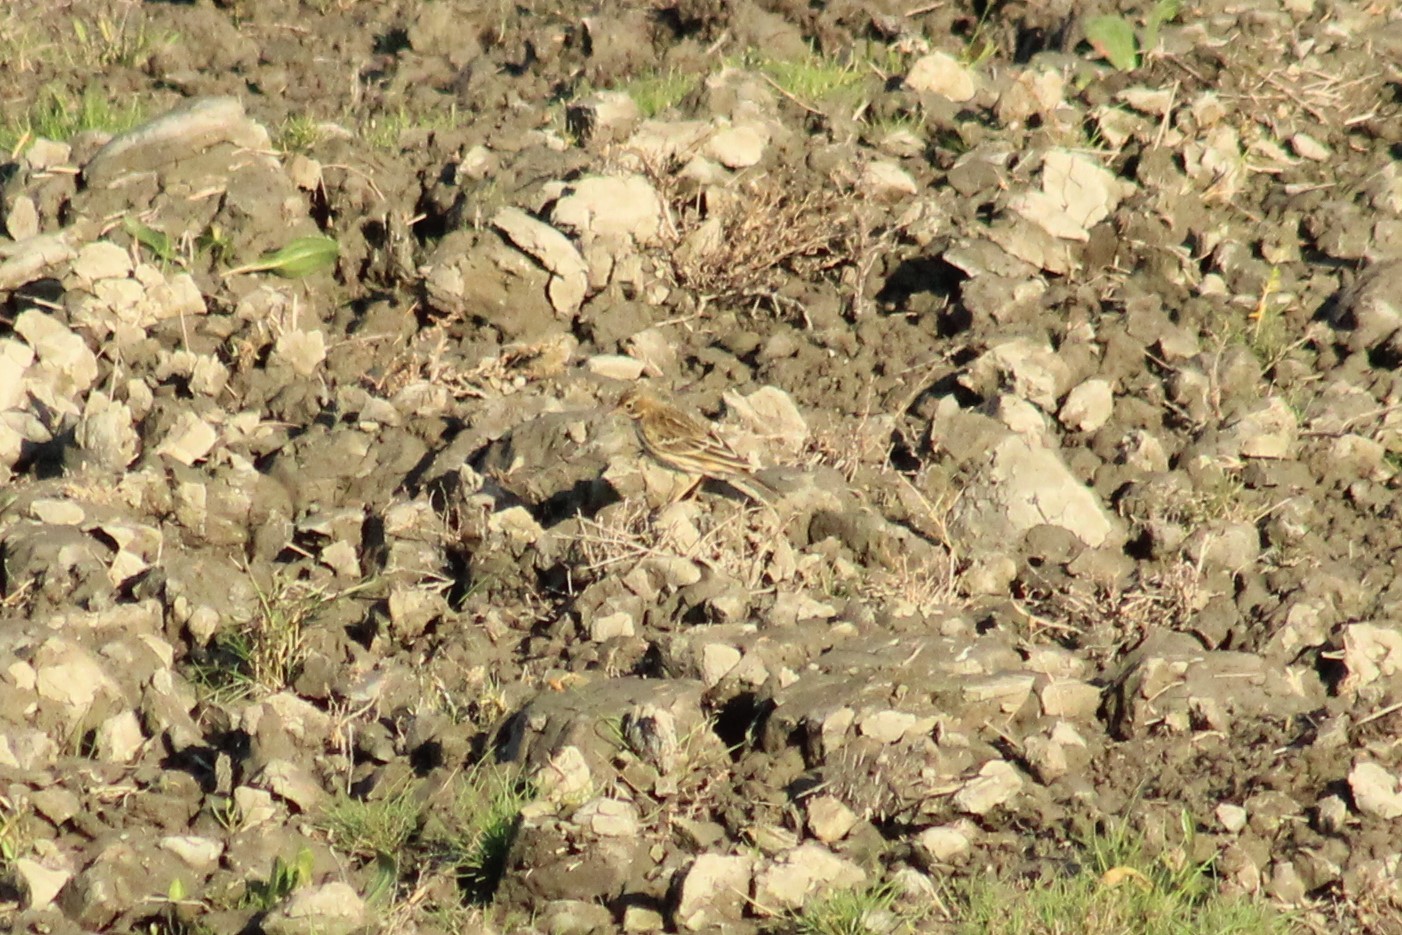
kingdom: Animalia
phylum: Chordata
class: Aves
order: Passeriformes
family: Motacillidae
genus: Anthus
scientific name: Anthus pratensis
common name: Meadow pipit
